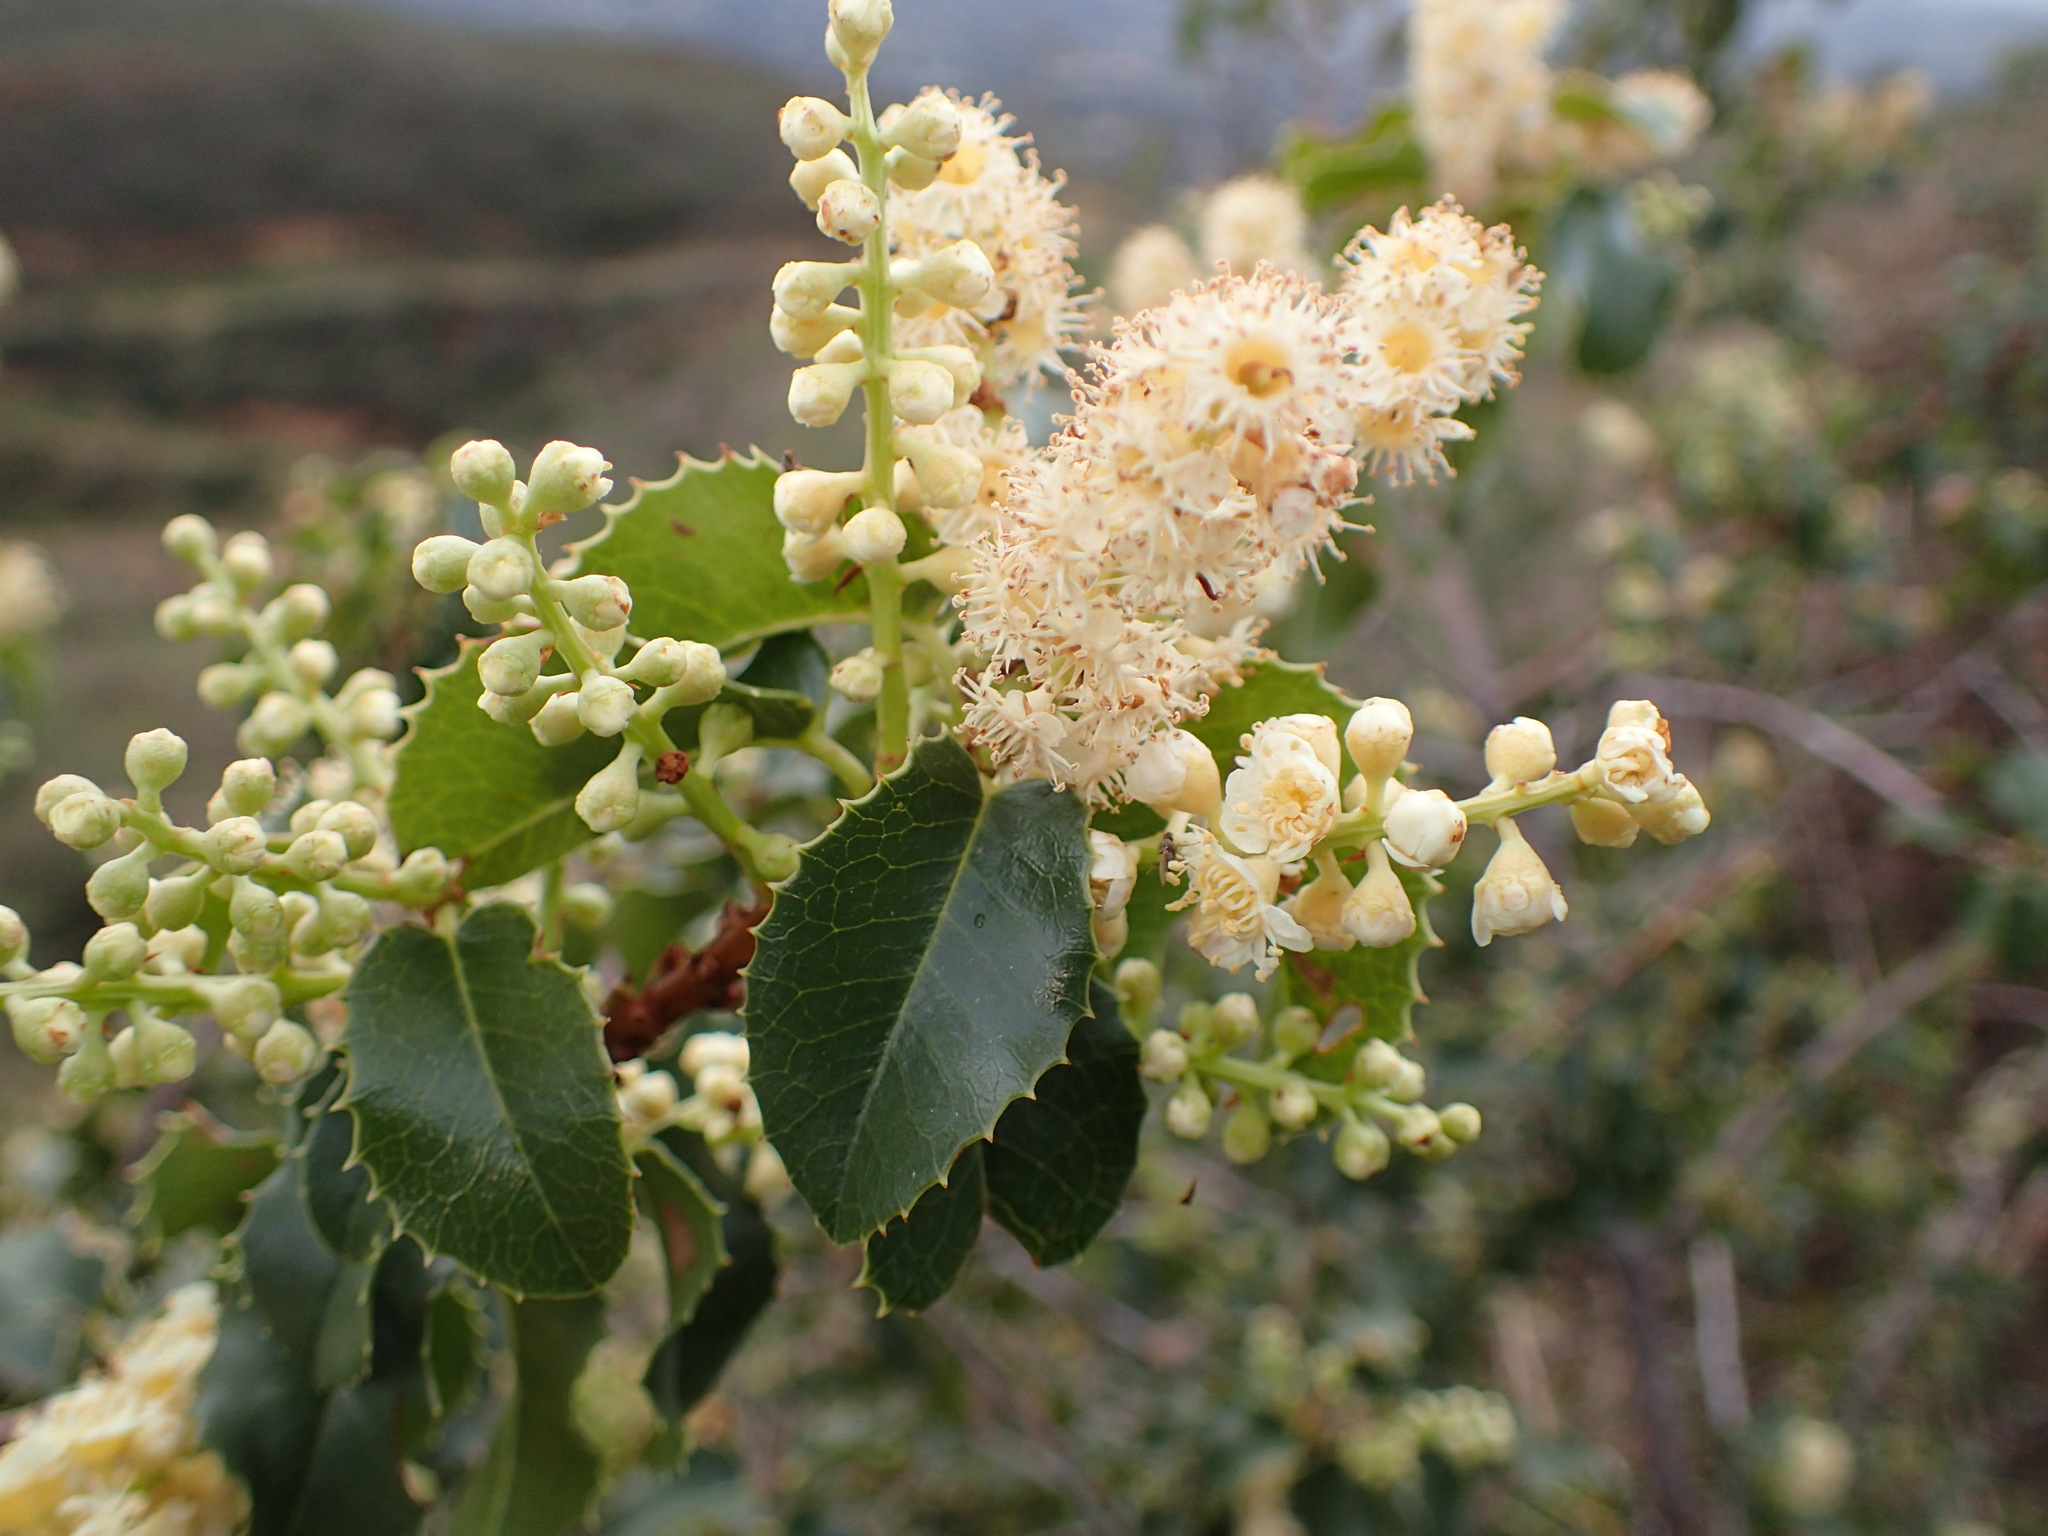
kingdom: Plantae
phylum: Tracheophyta
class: Magnoliopsida
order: Rosales
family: Rosaceae
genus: Prunus
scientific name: Prunus ilicifolia
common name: Hollyleaf cherry
